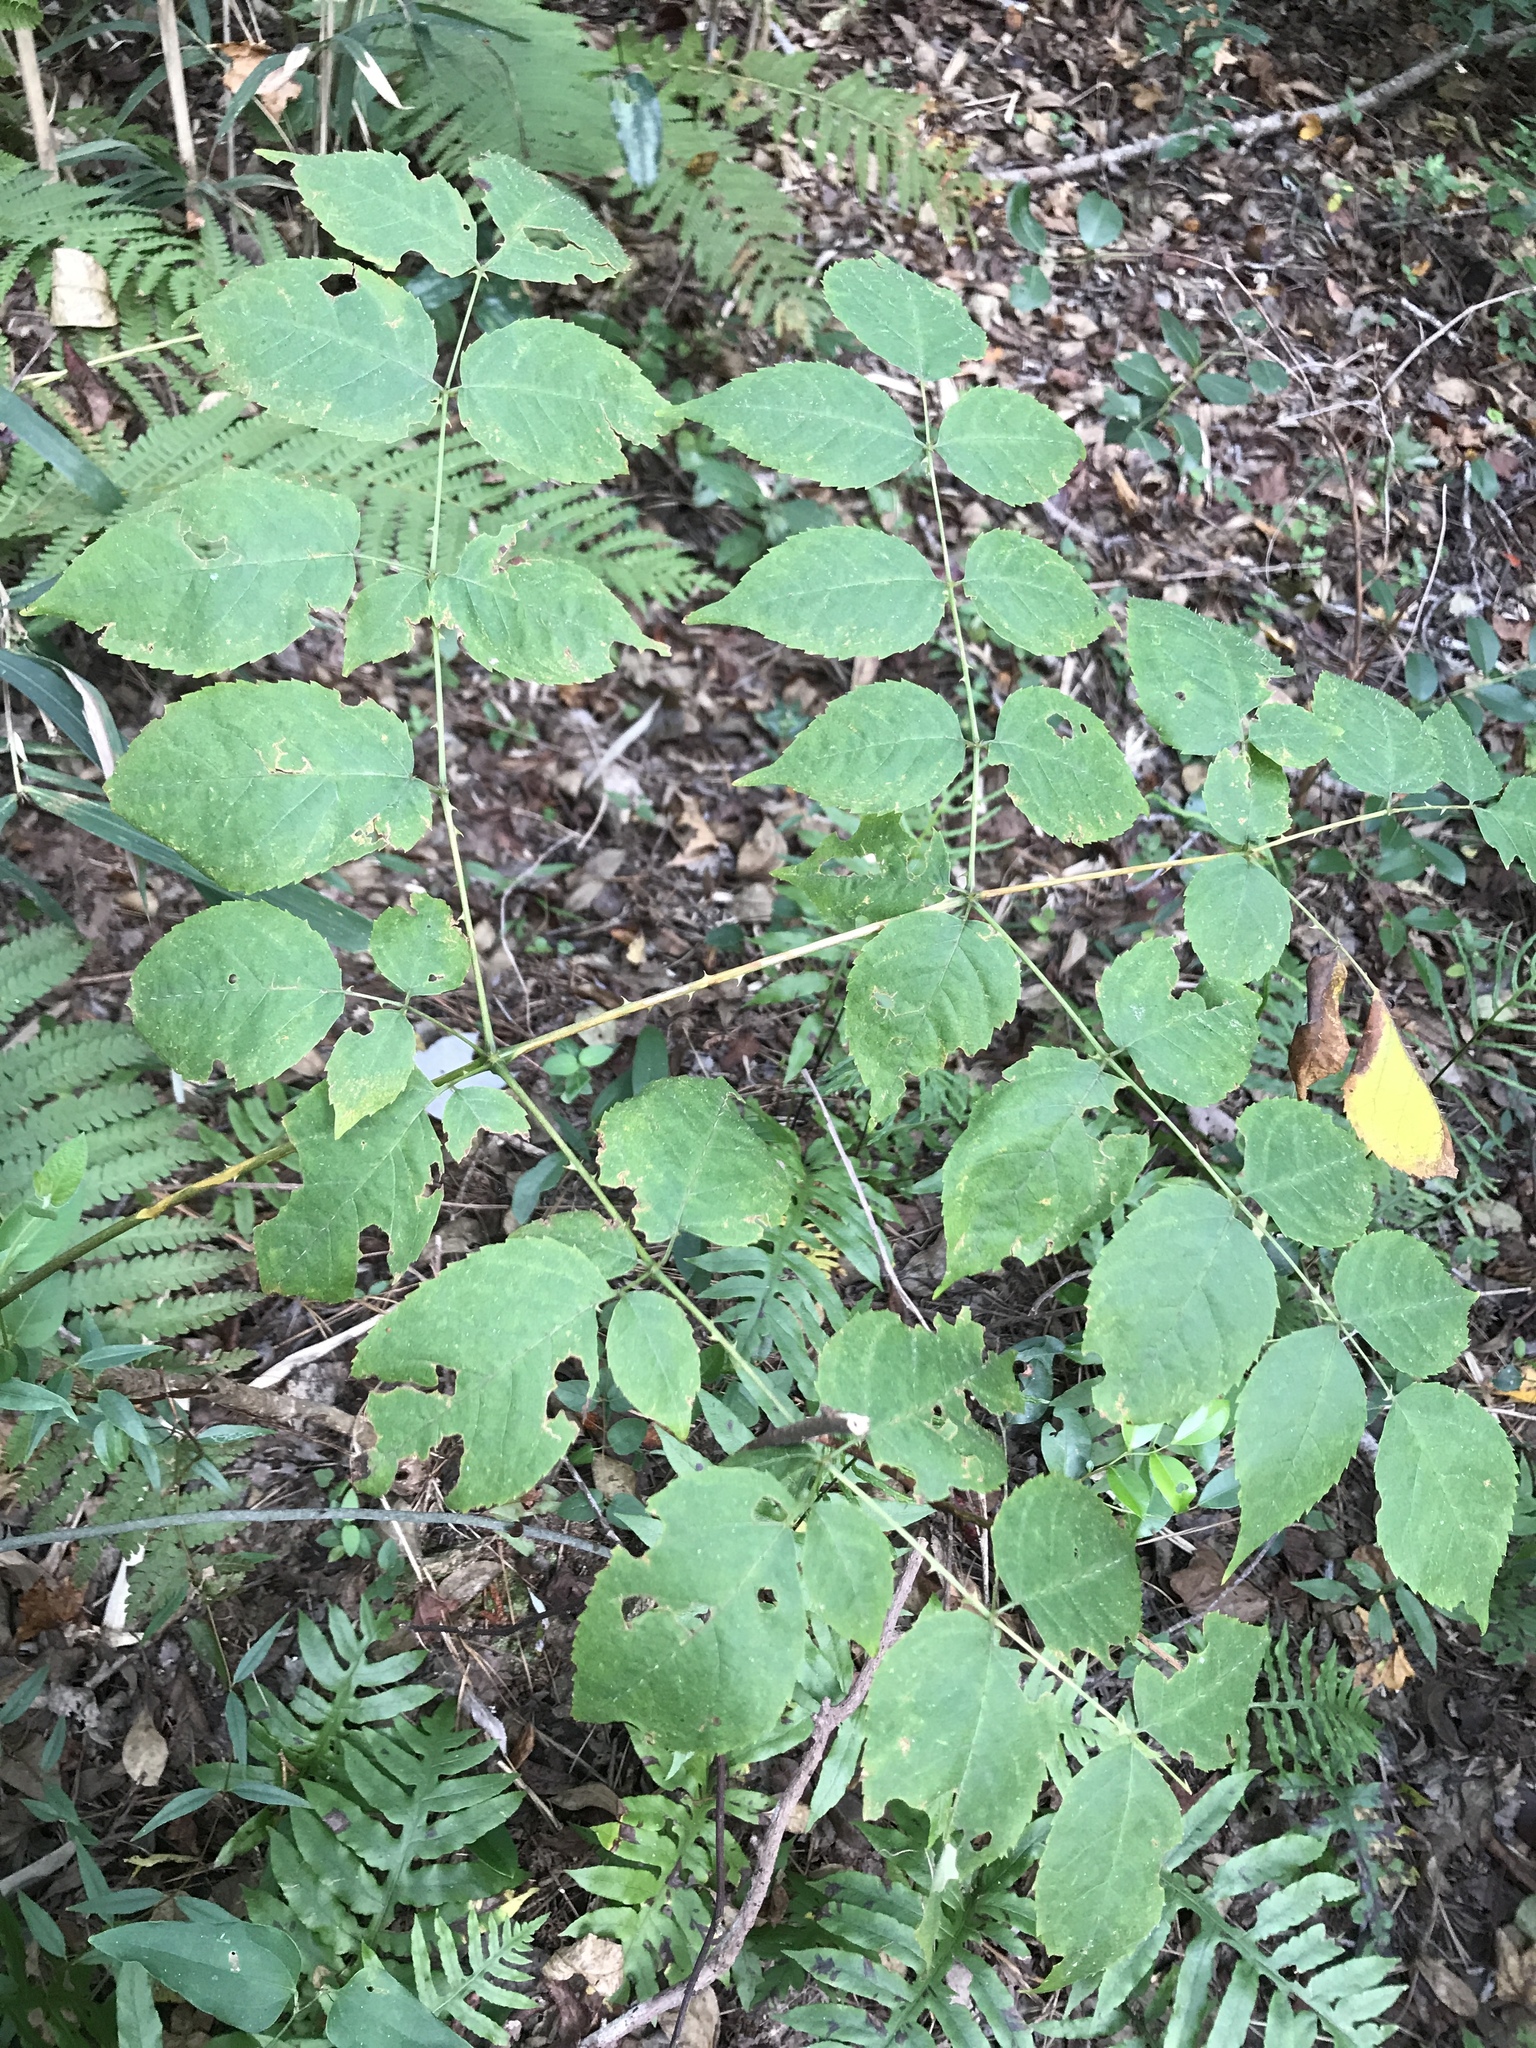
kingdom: Plantae
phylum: Tracheophyta
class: Magnoliopsida
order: Apiales
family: Araliaceae
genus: Aralia
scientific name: Aralia spinosa
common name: Hercules'-club
